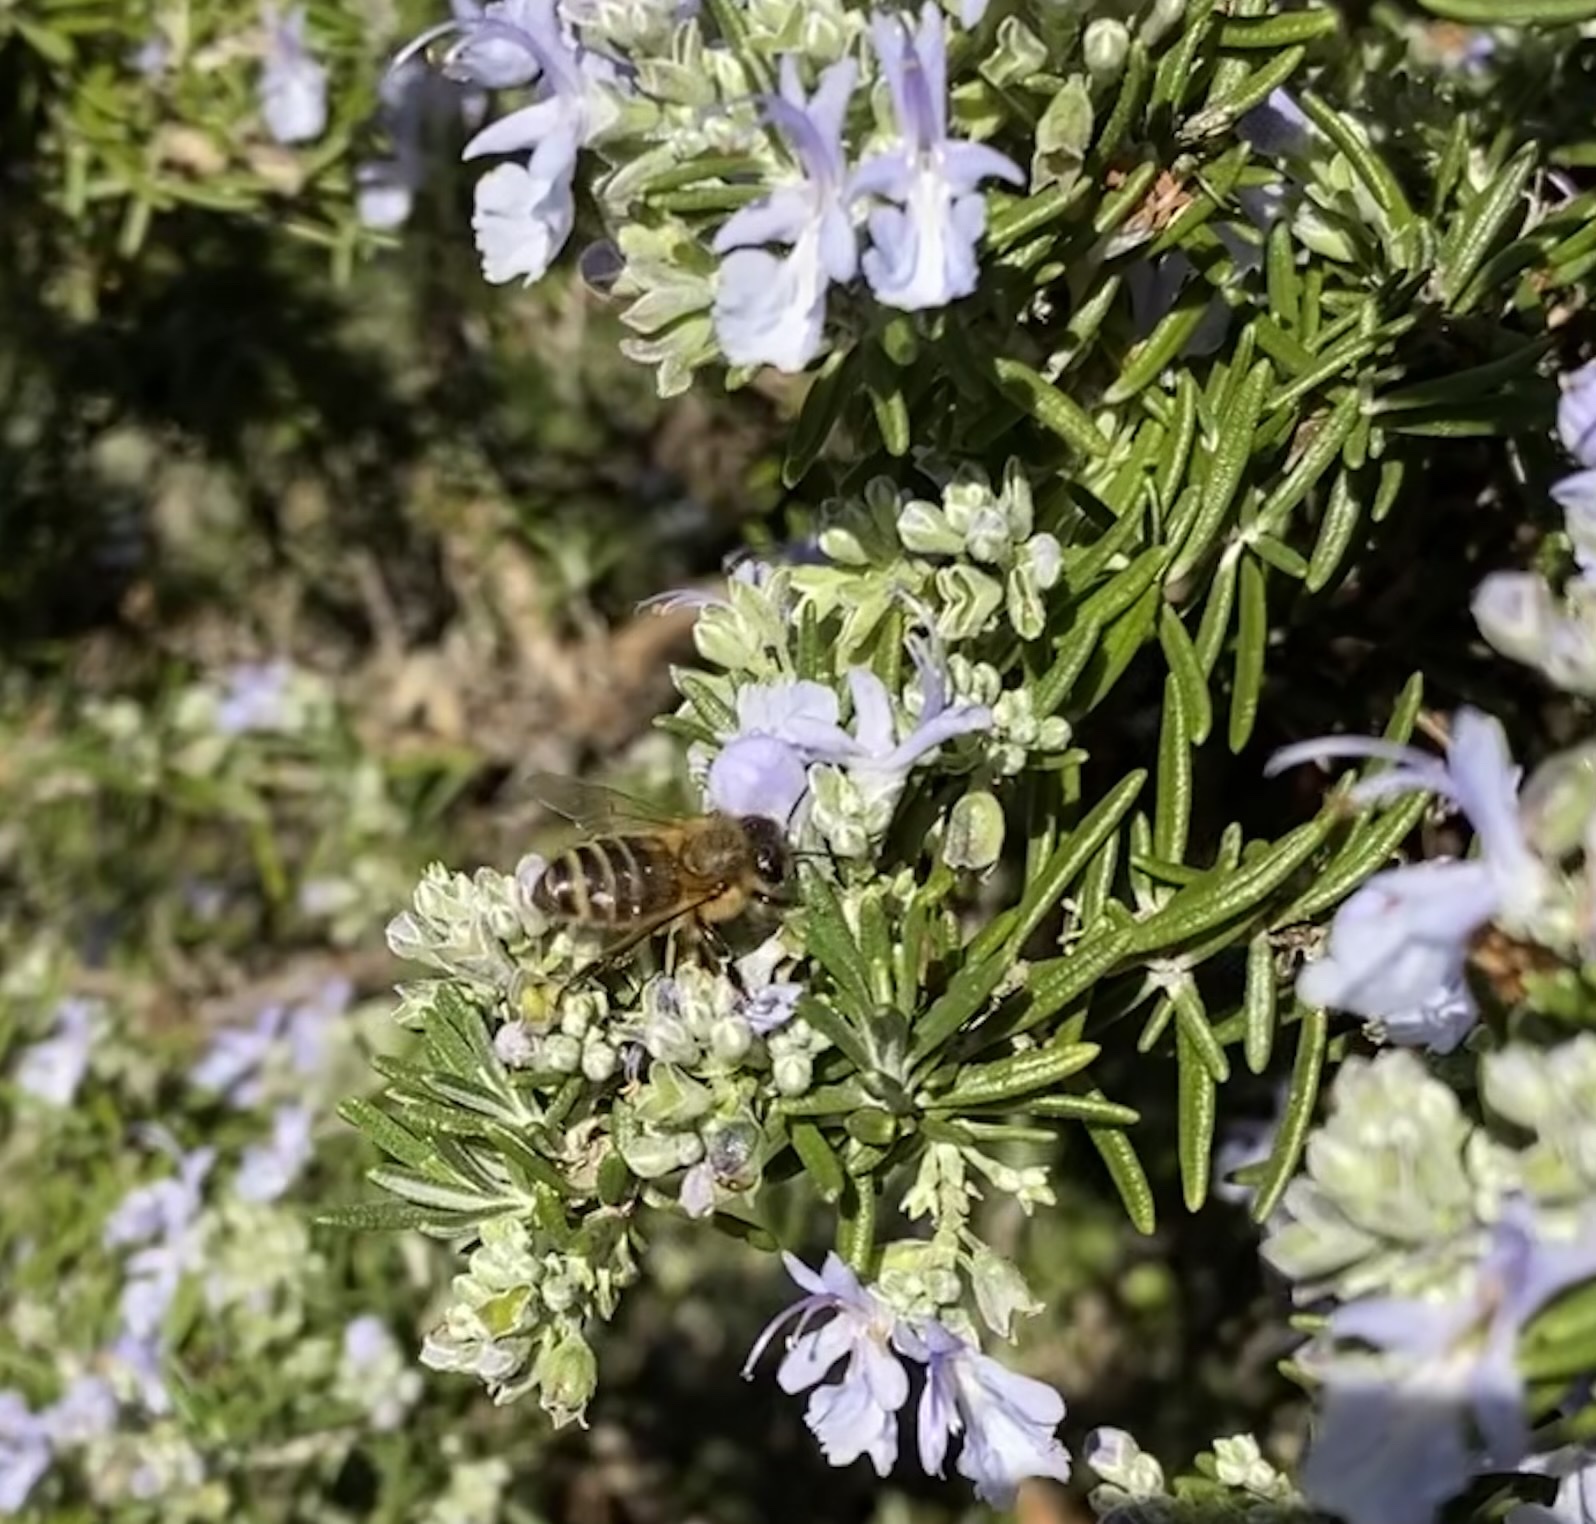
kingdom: Animalia
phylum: Arthropoda
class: Insecta
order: Hymenoptera
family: Apidae
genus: Apis
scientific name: Apis mellifera
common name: Honey bee
